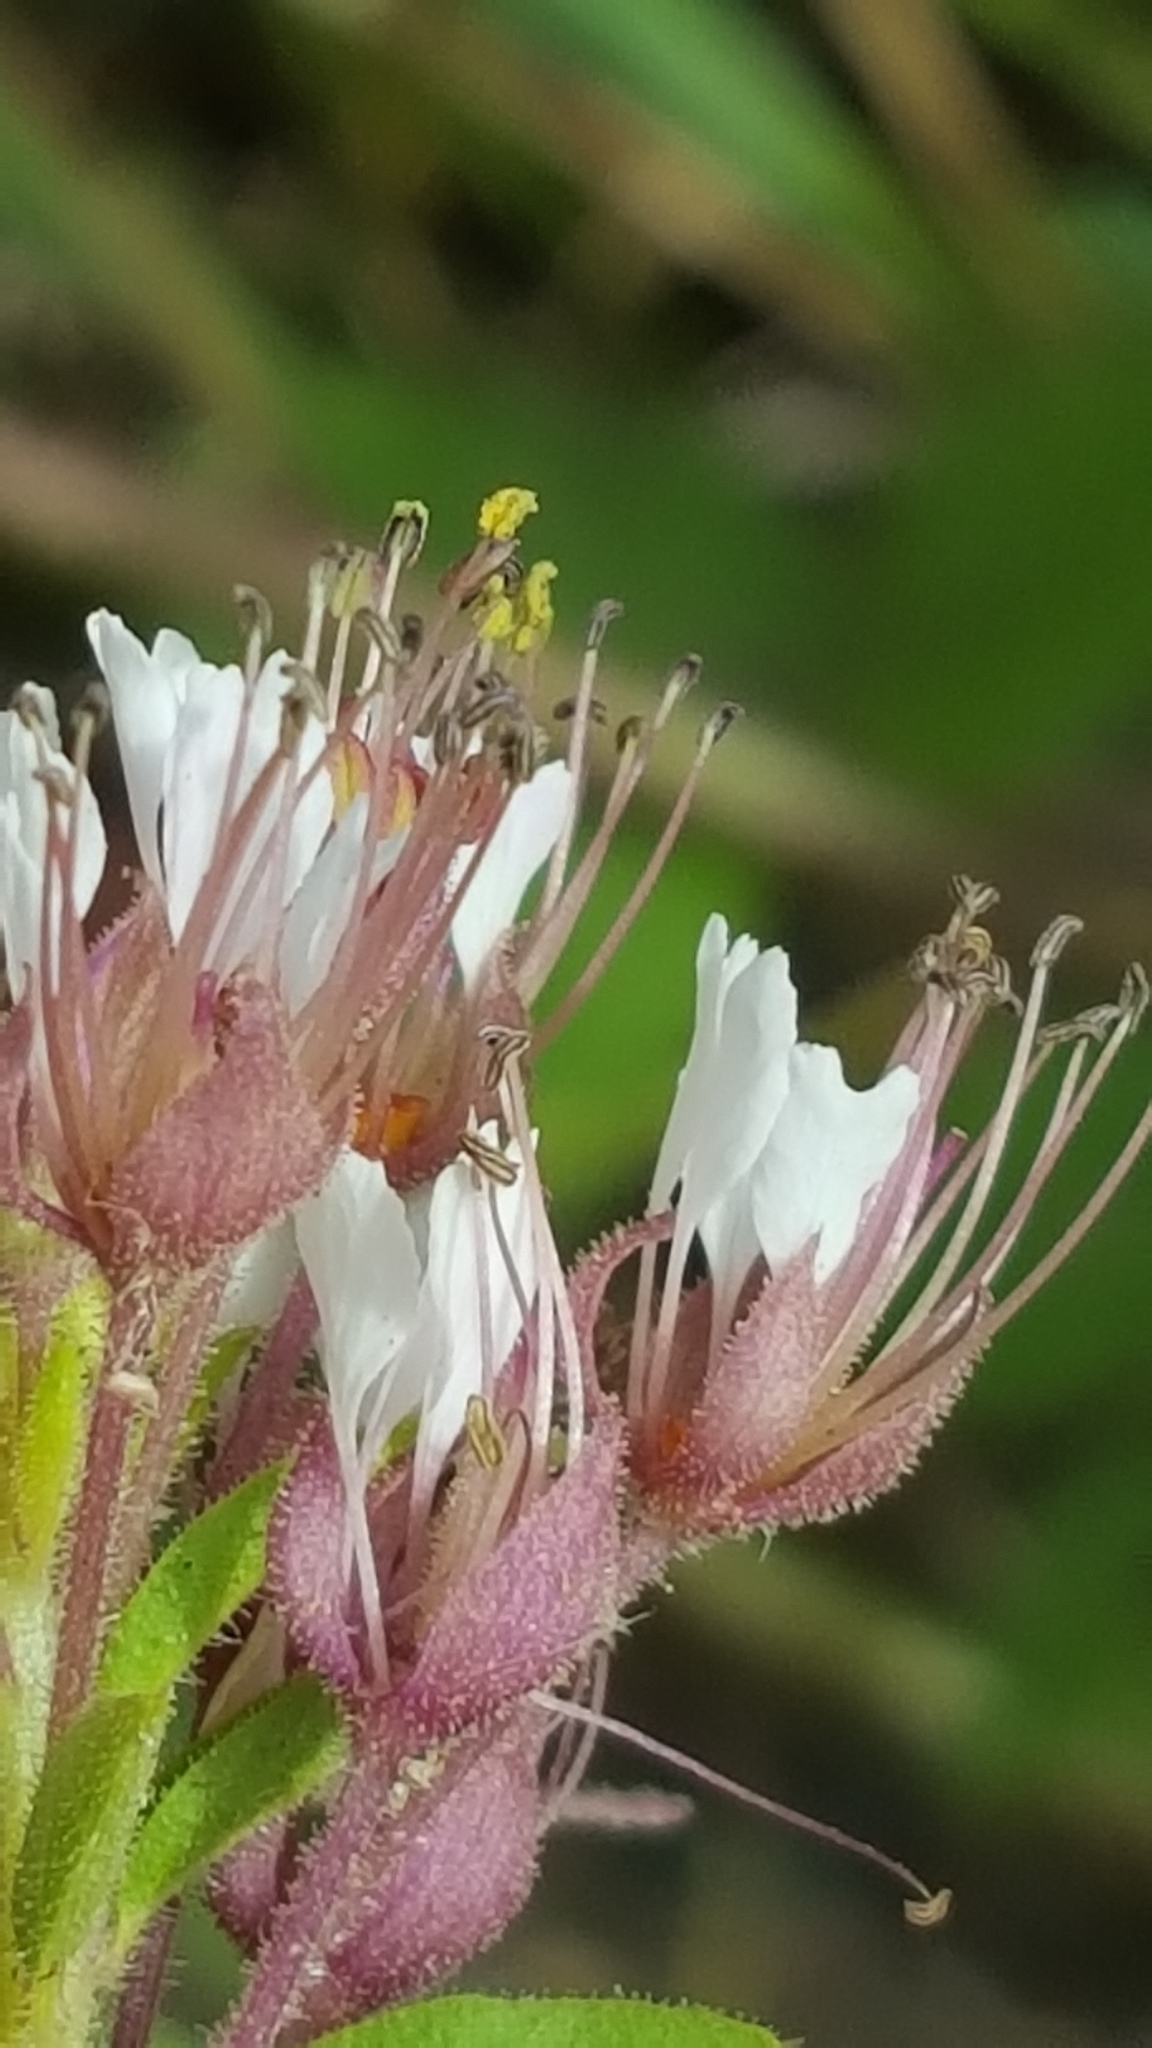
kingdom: Plantae
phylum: Tracheophyta
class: Magnoliopsida
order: Brassicales
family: Cleomaceae
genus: Polanisia
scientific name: Polanisia dodecandra
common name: Clammyweed
